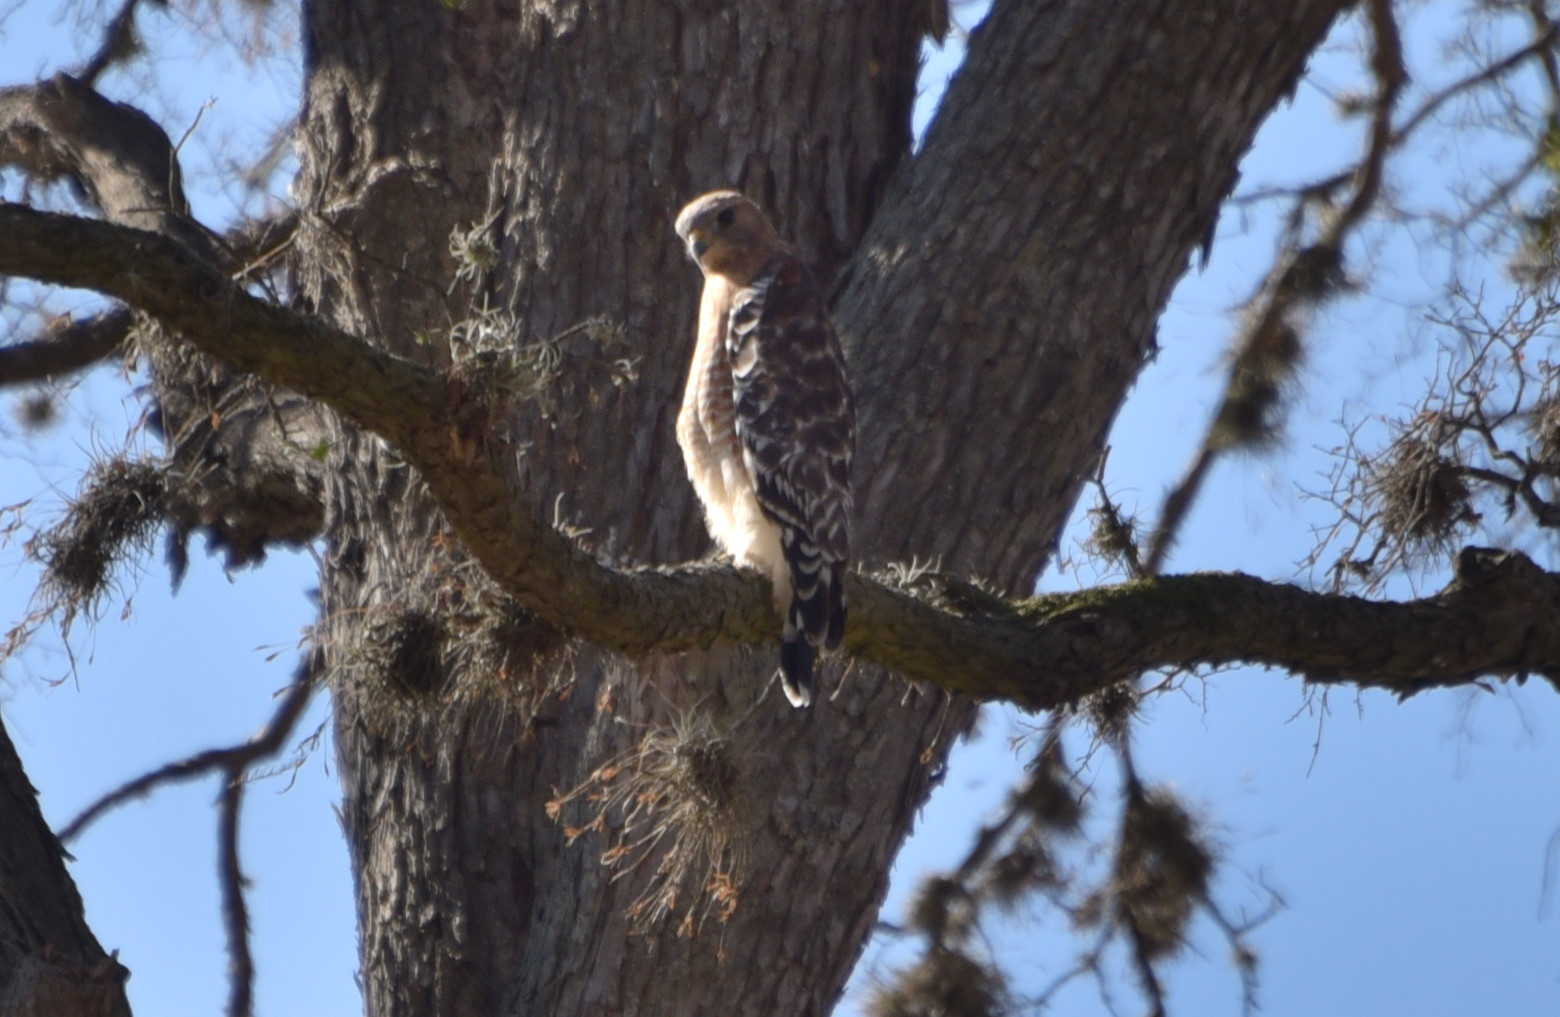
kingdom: Animalia
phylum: Chordata
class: Aves
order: Accipitriformes
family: Accipitridae
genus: Buteo
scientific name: Buteo lineatus
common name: Red-shouldered hawk
